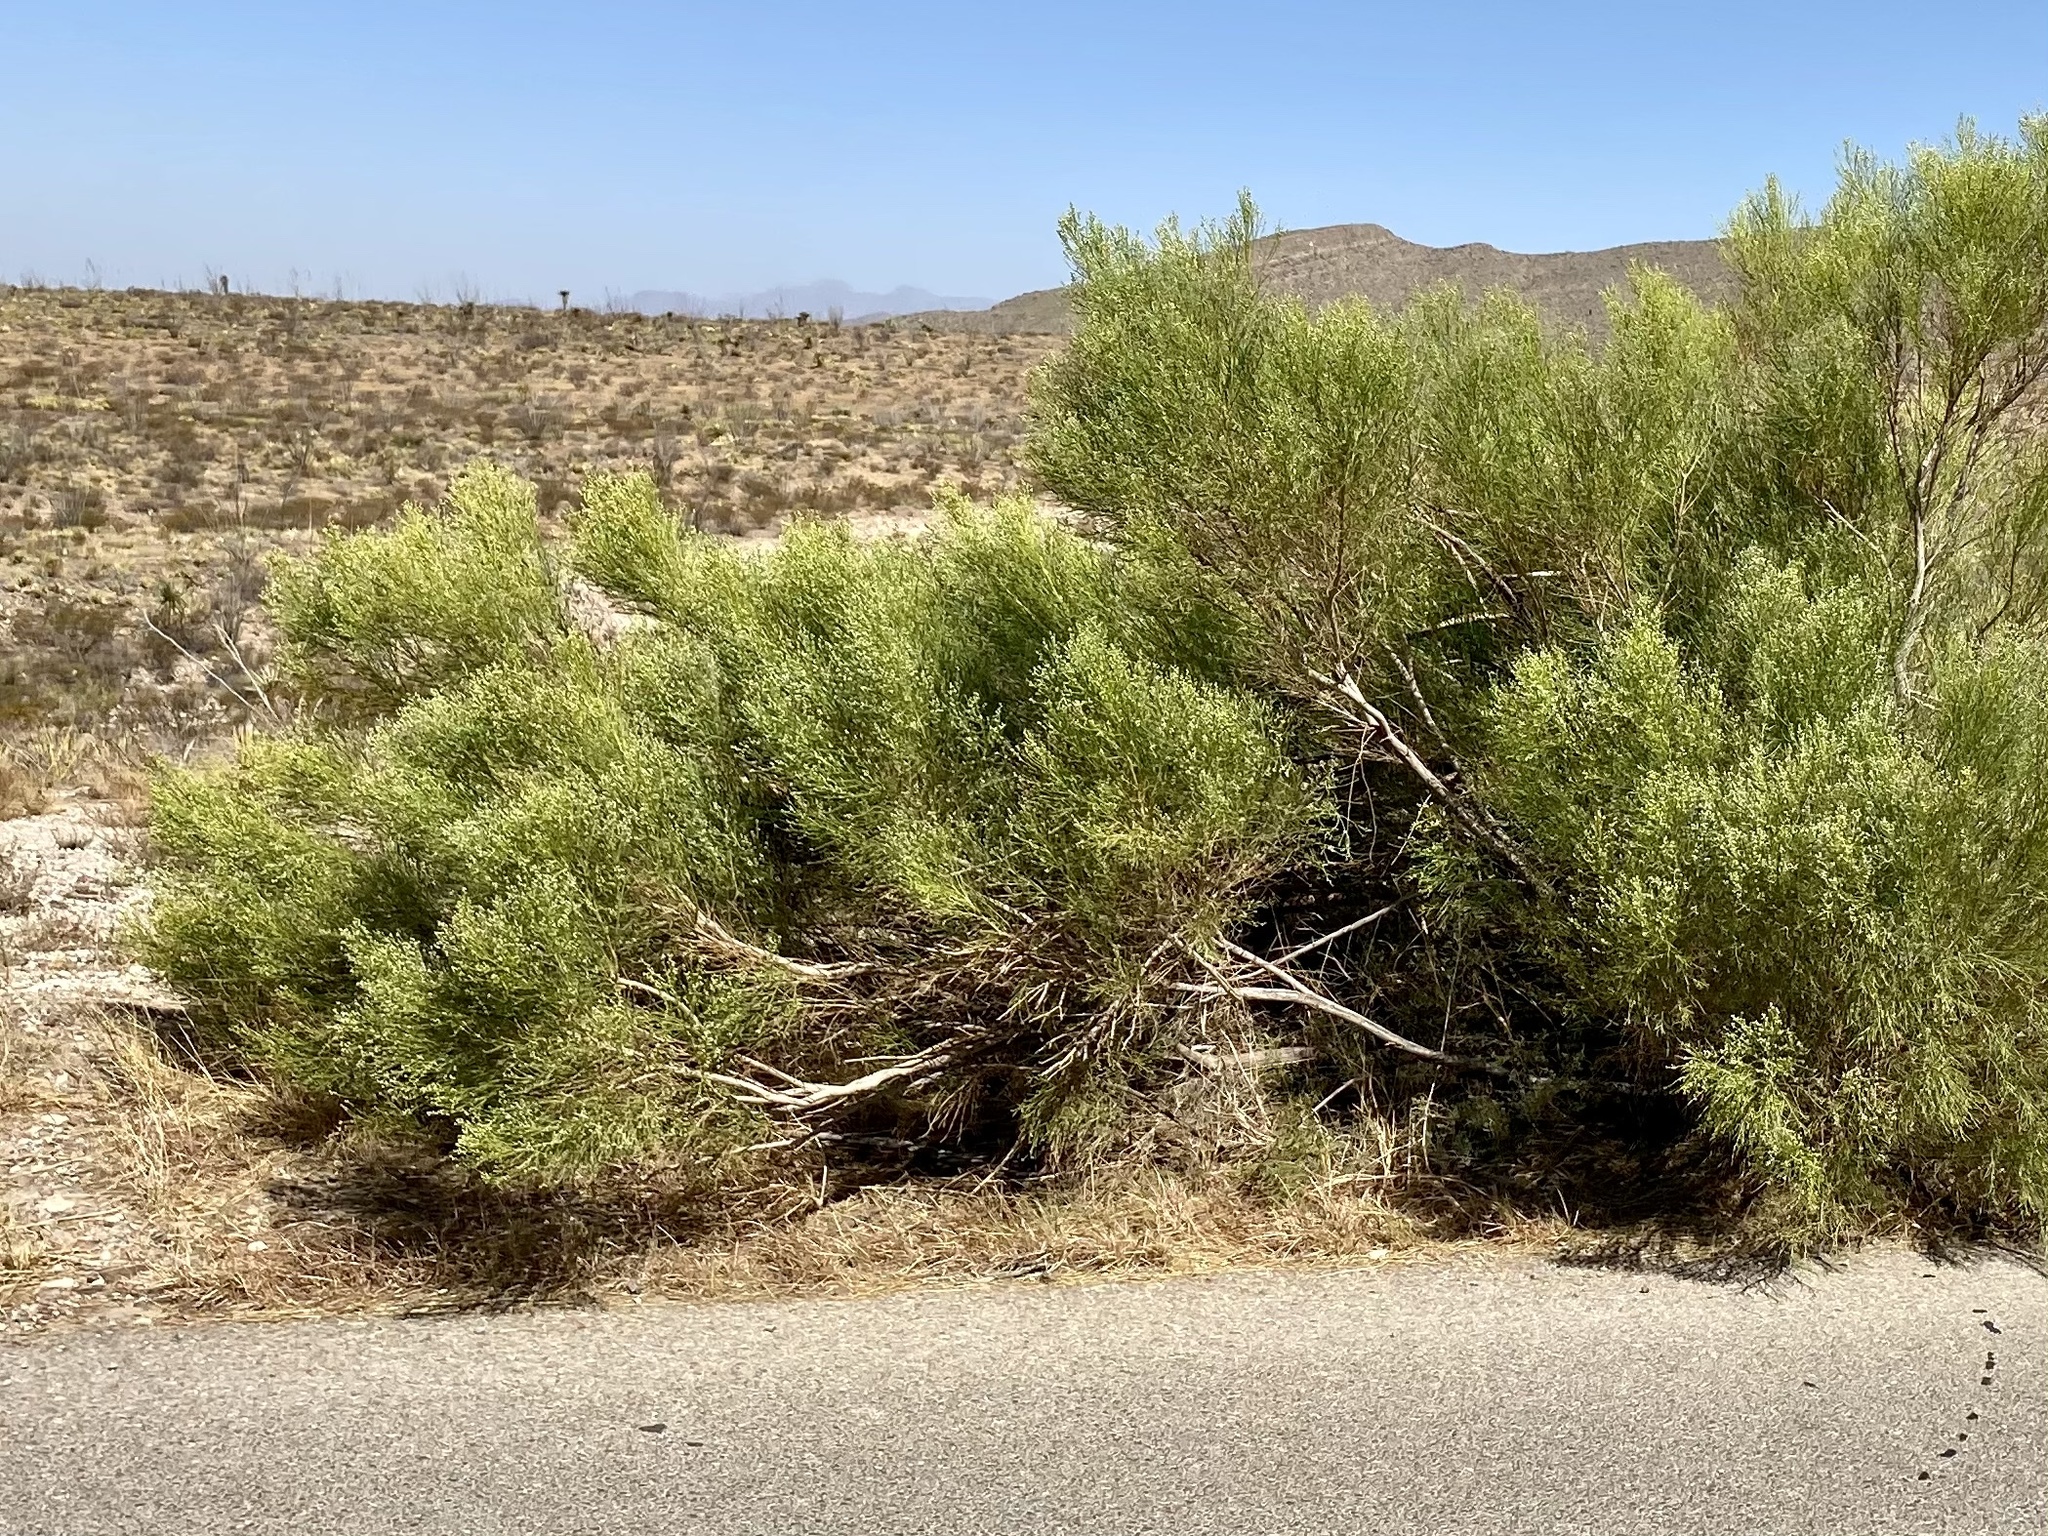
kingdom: Plantae
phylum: Tracheophyta
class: Magnoliopsida
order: Asterales
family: Asteraceae
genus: Baccharis
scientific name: Baccharis sarothroides
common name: Desert-broom
